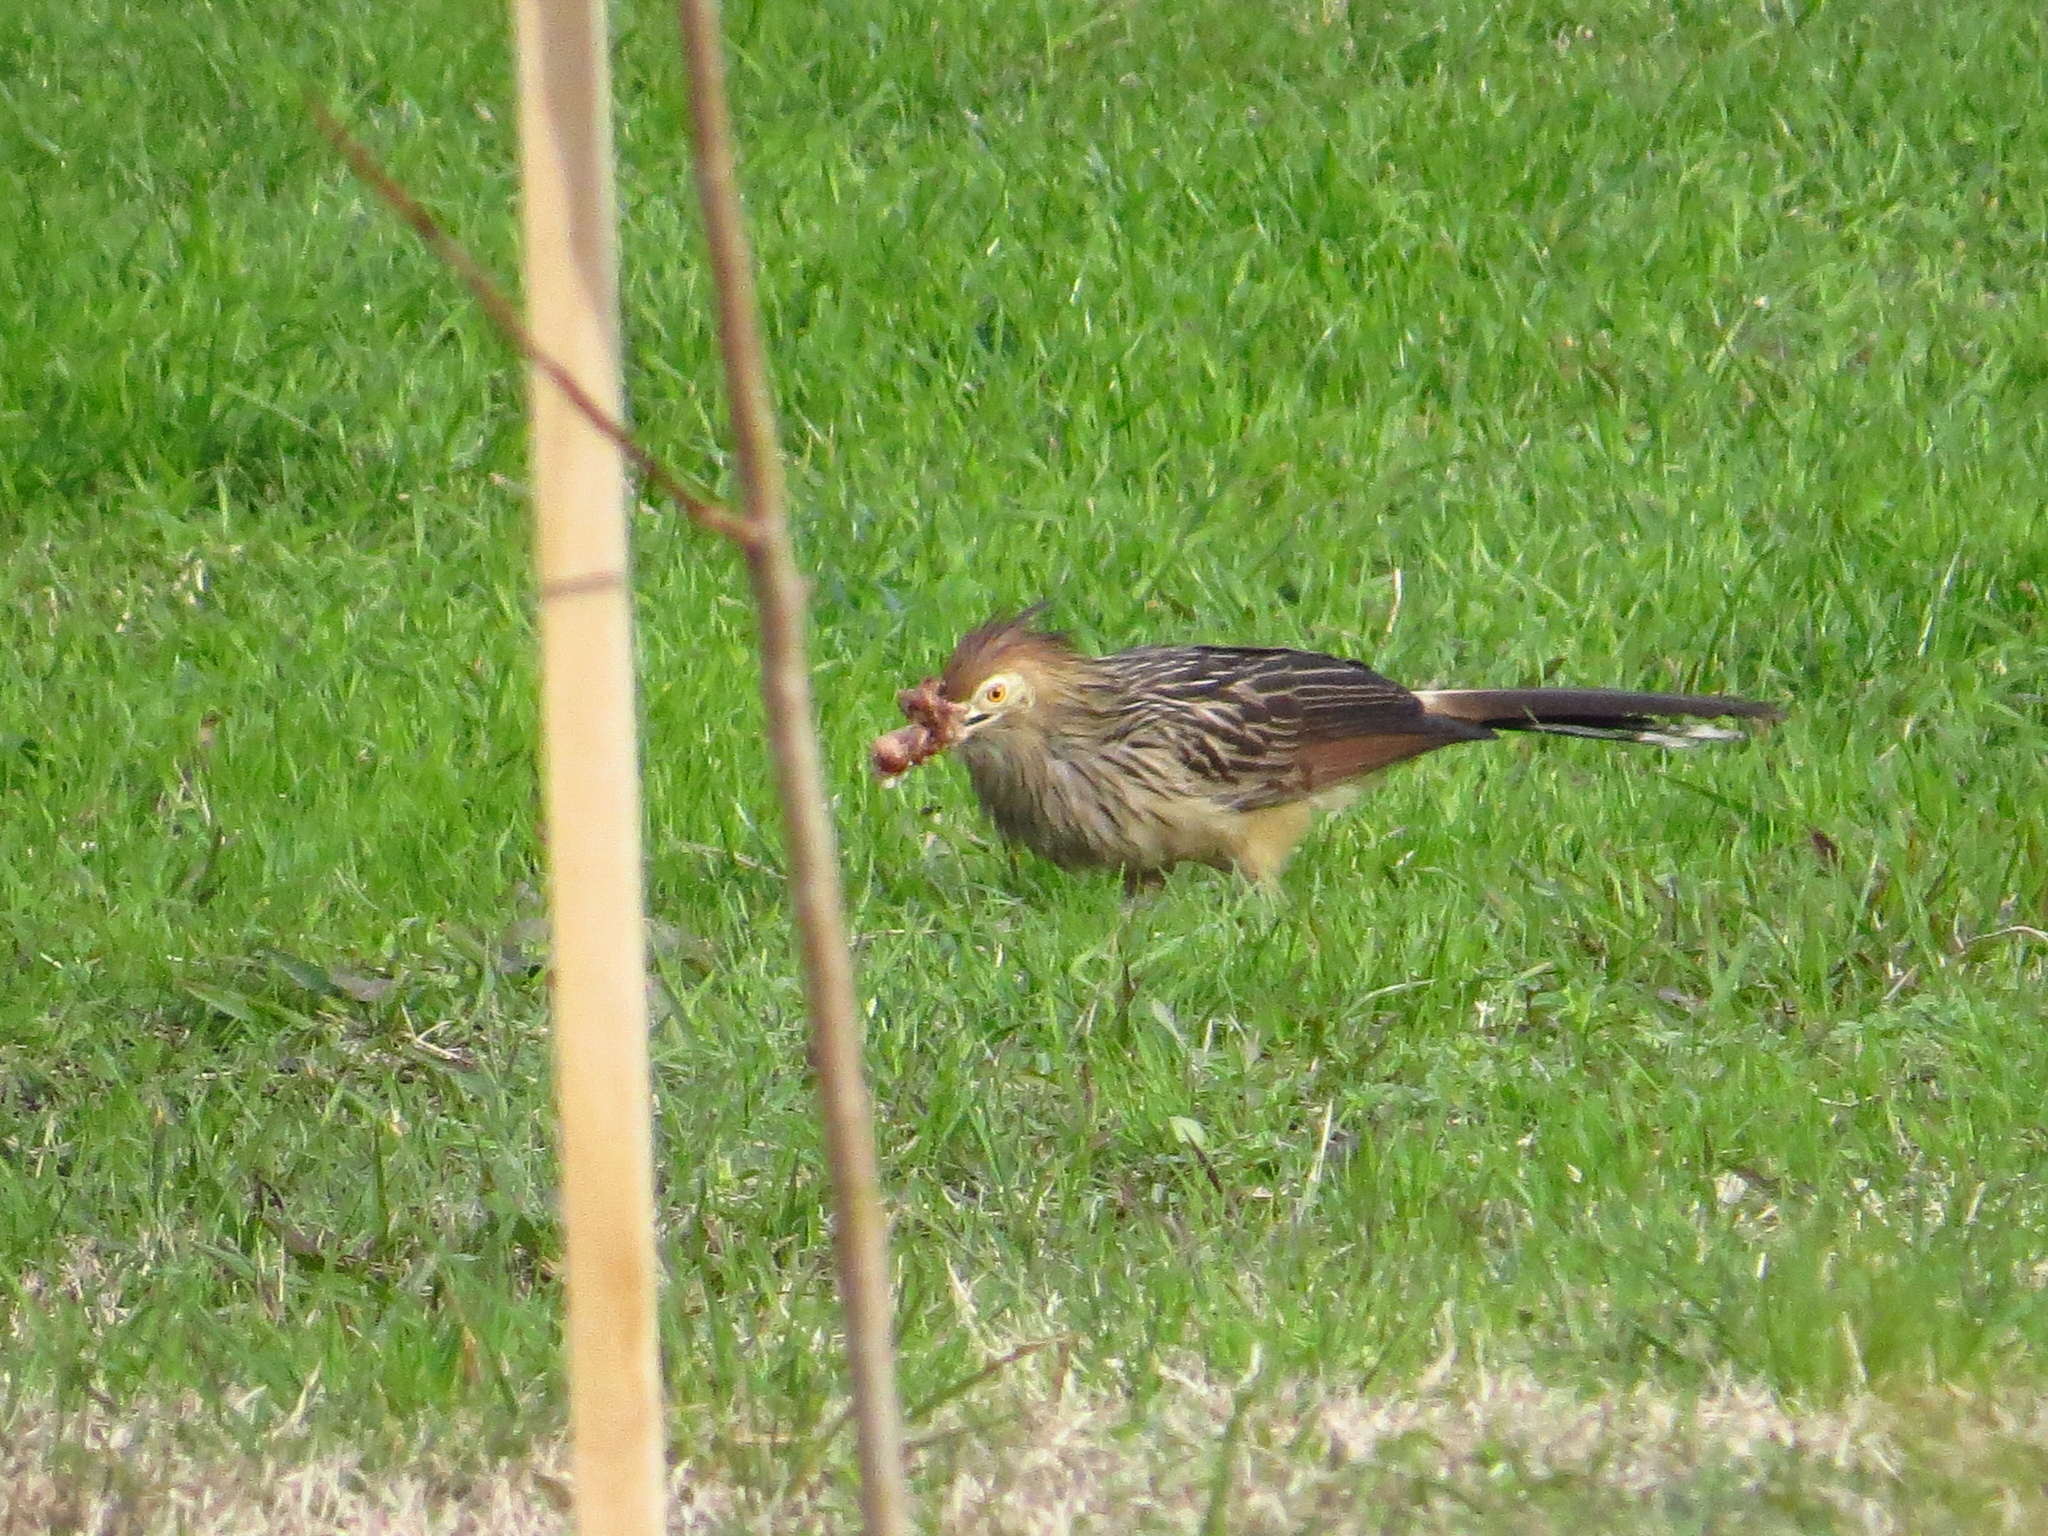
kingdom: Animalia
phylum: Chordata
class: Aves
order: Cuculiformes
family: Cuculidae
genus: Guira
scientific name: Guira guira
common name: Guira cuckoo
